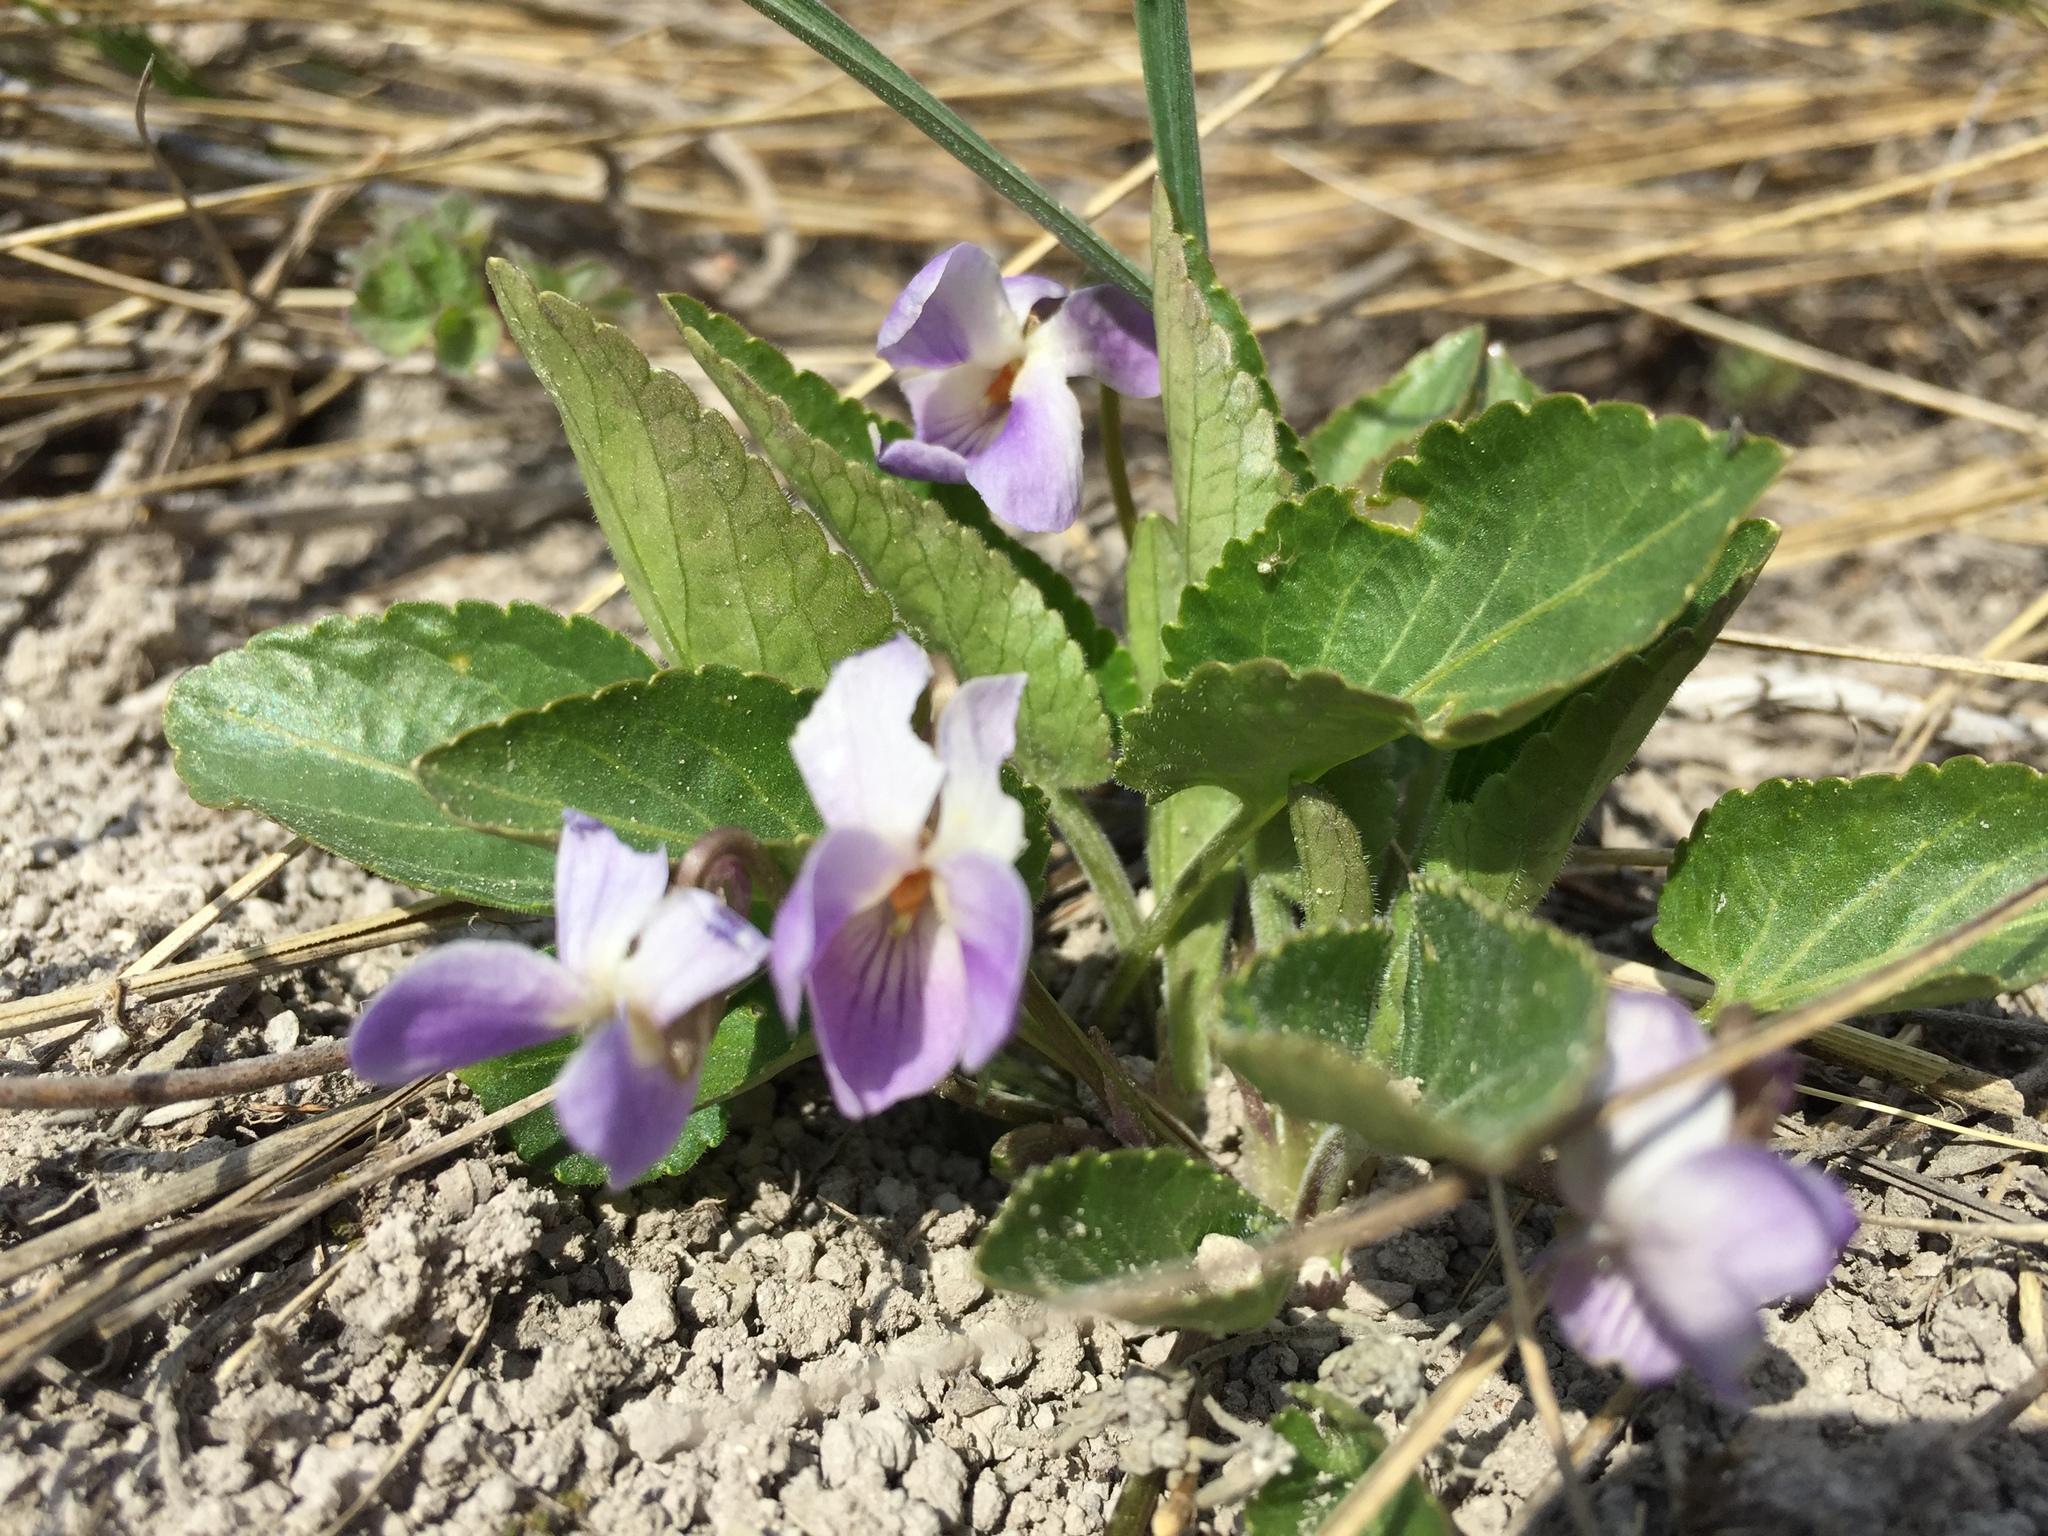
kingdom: Plantae
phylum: Tracheophyta
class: Magnoliopsida
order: Malpighiales
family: Violaceae
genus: Viola
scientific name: Viola ambigua
